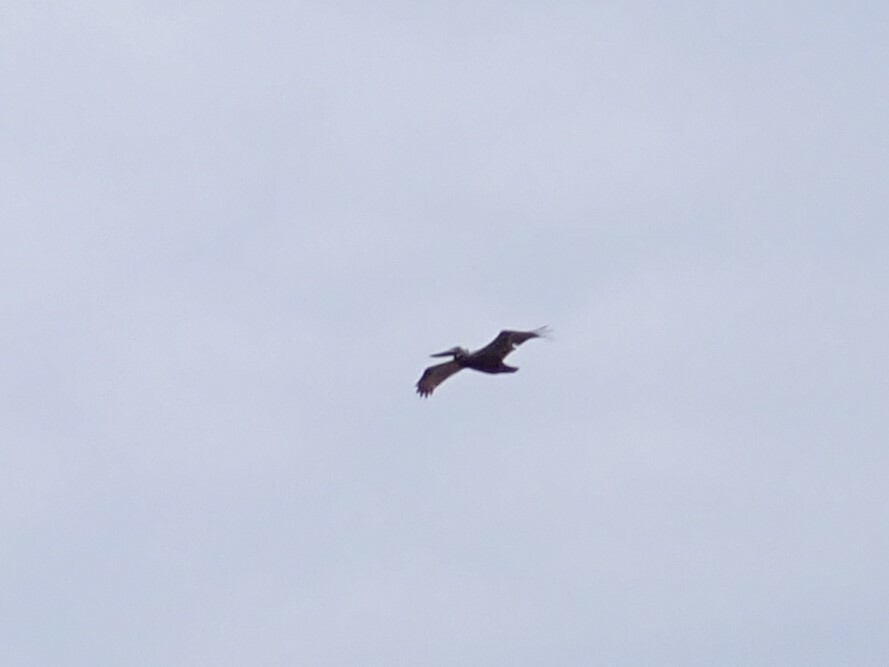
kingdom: Animalia
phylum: Chordata
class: Aves
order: Pelecaniformes
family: Pelecanidae
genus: Pelecanus
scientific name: Pelecanus occidentalis
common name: Brown pelican
